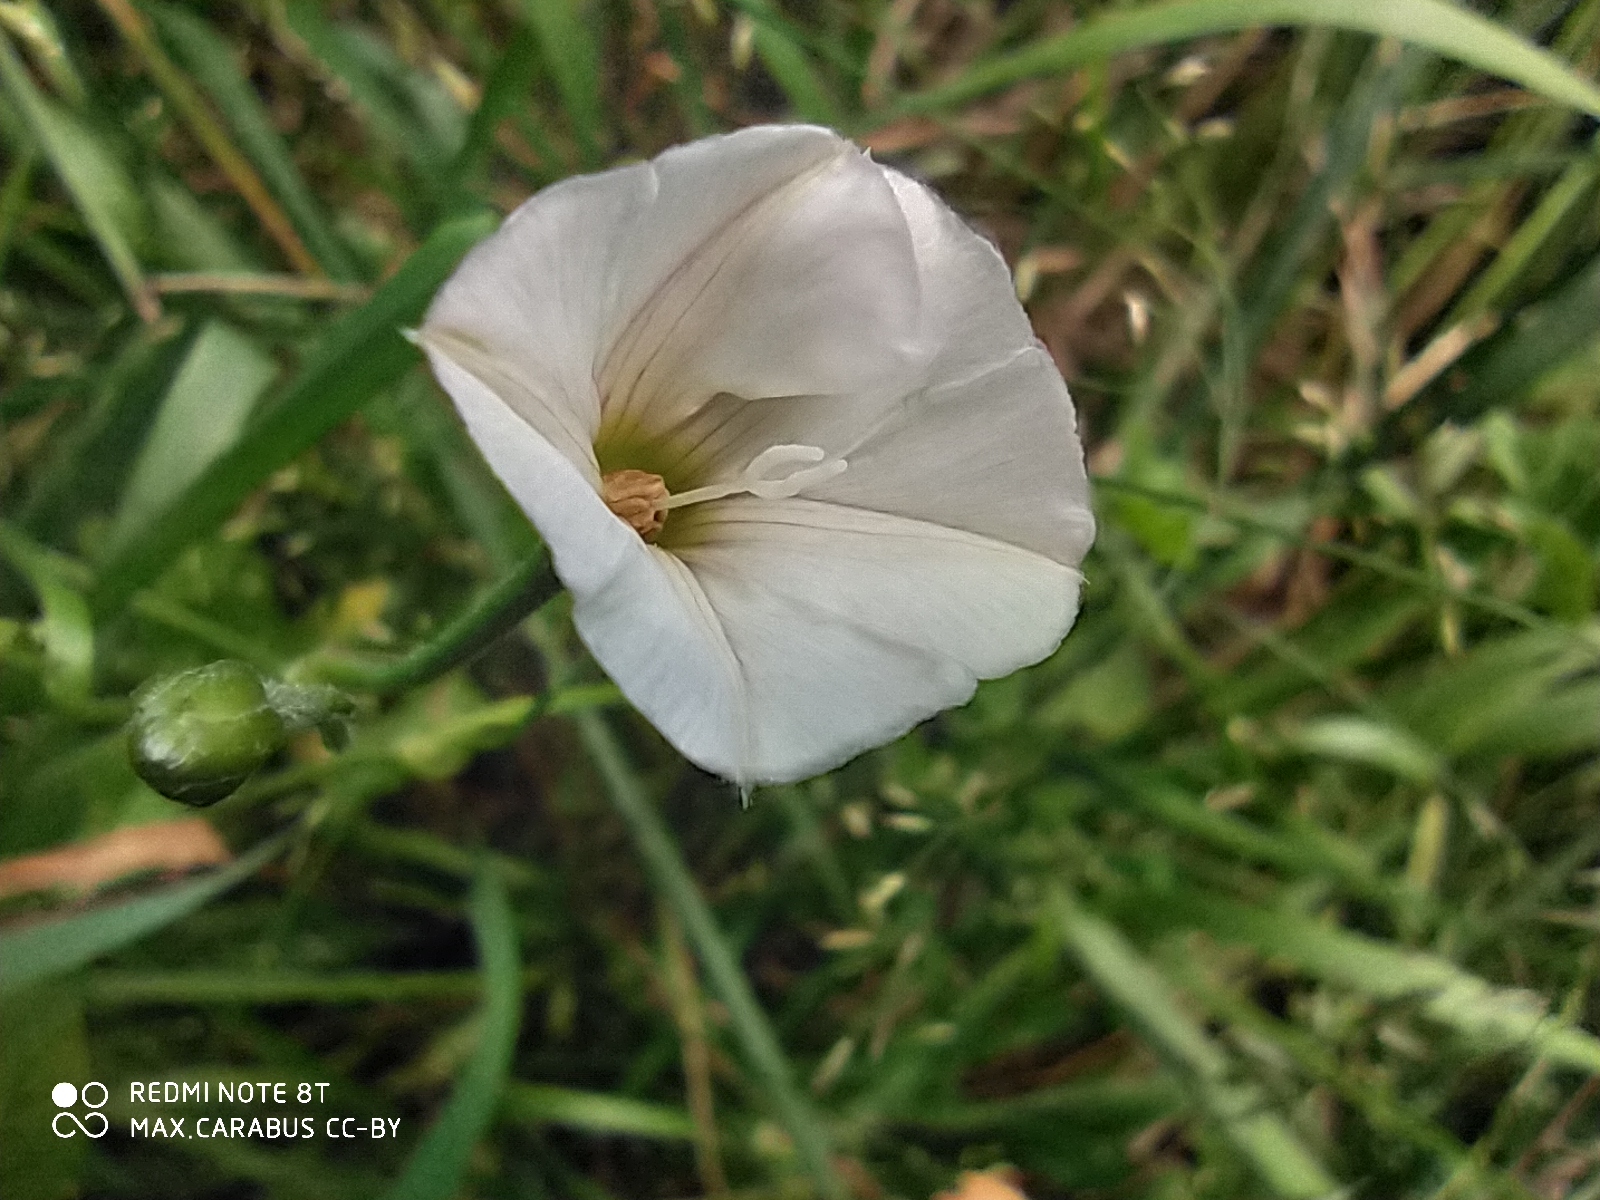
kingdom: Plantae
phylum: Tracheophyta
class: Magnoliopsida
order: Solanales
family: Convolvulaceae
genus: Convolvulus
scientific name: Convolvulus arvensis
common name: Field bindweed
